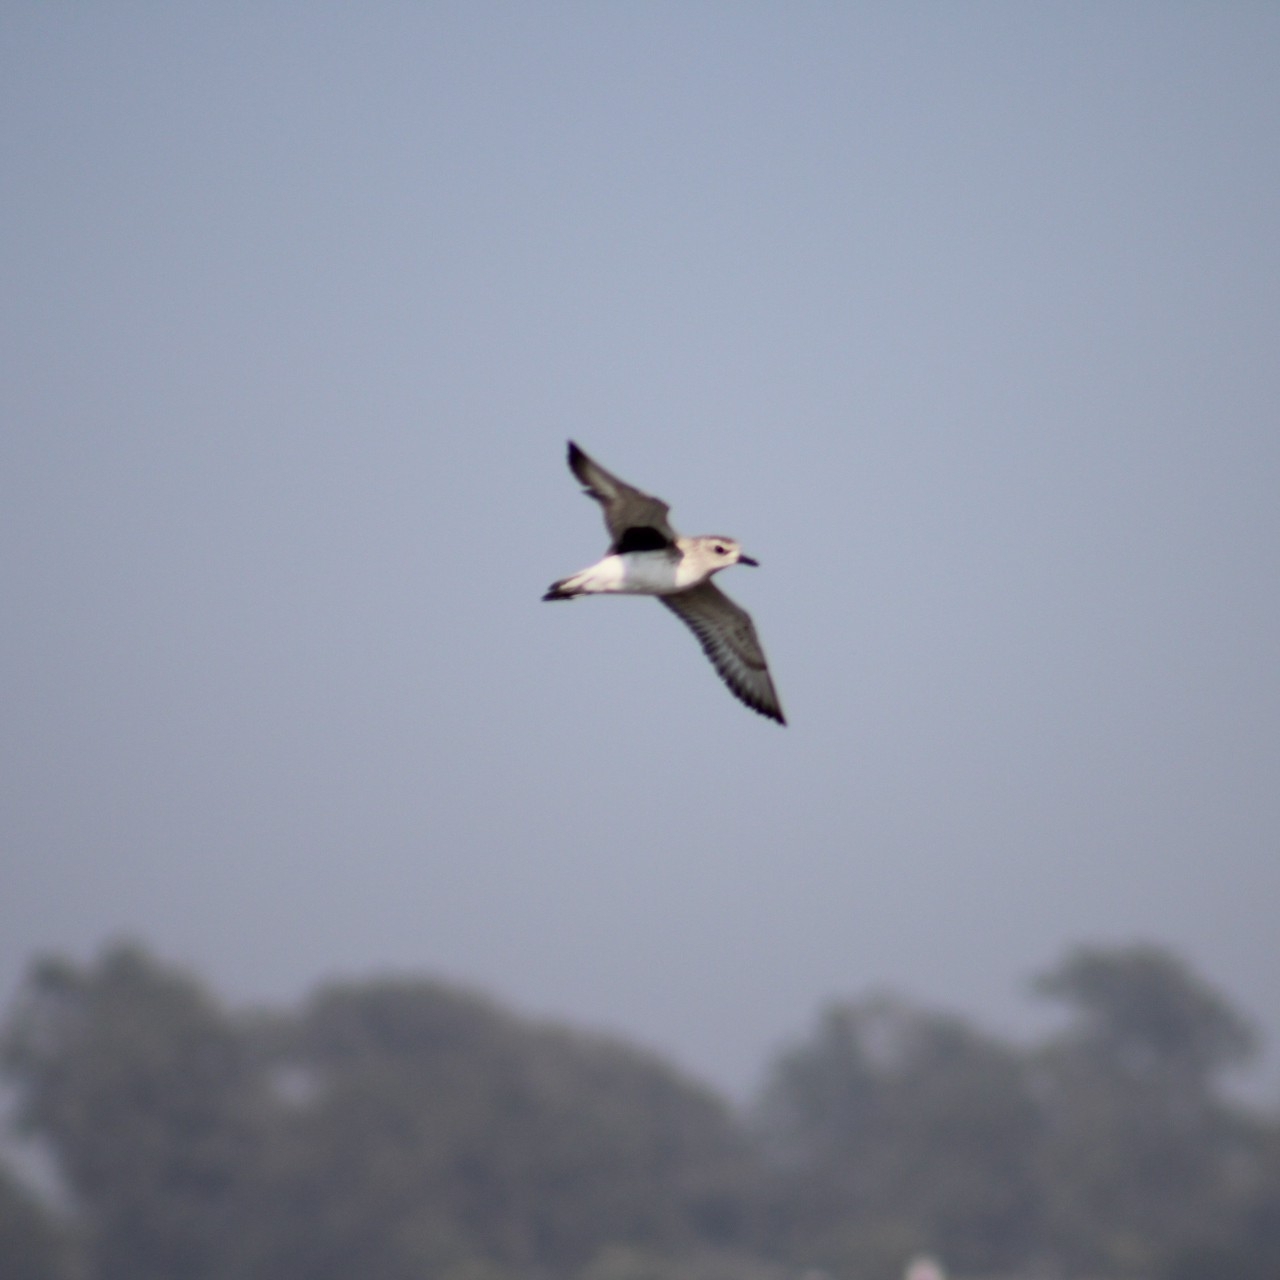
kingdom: Animalia
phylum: Chordata
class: Aves
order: Charadriiformes
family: Charadriidae
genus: Pluvialis
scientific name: Pluvialis squatarola
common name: Grey plover
